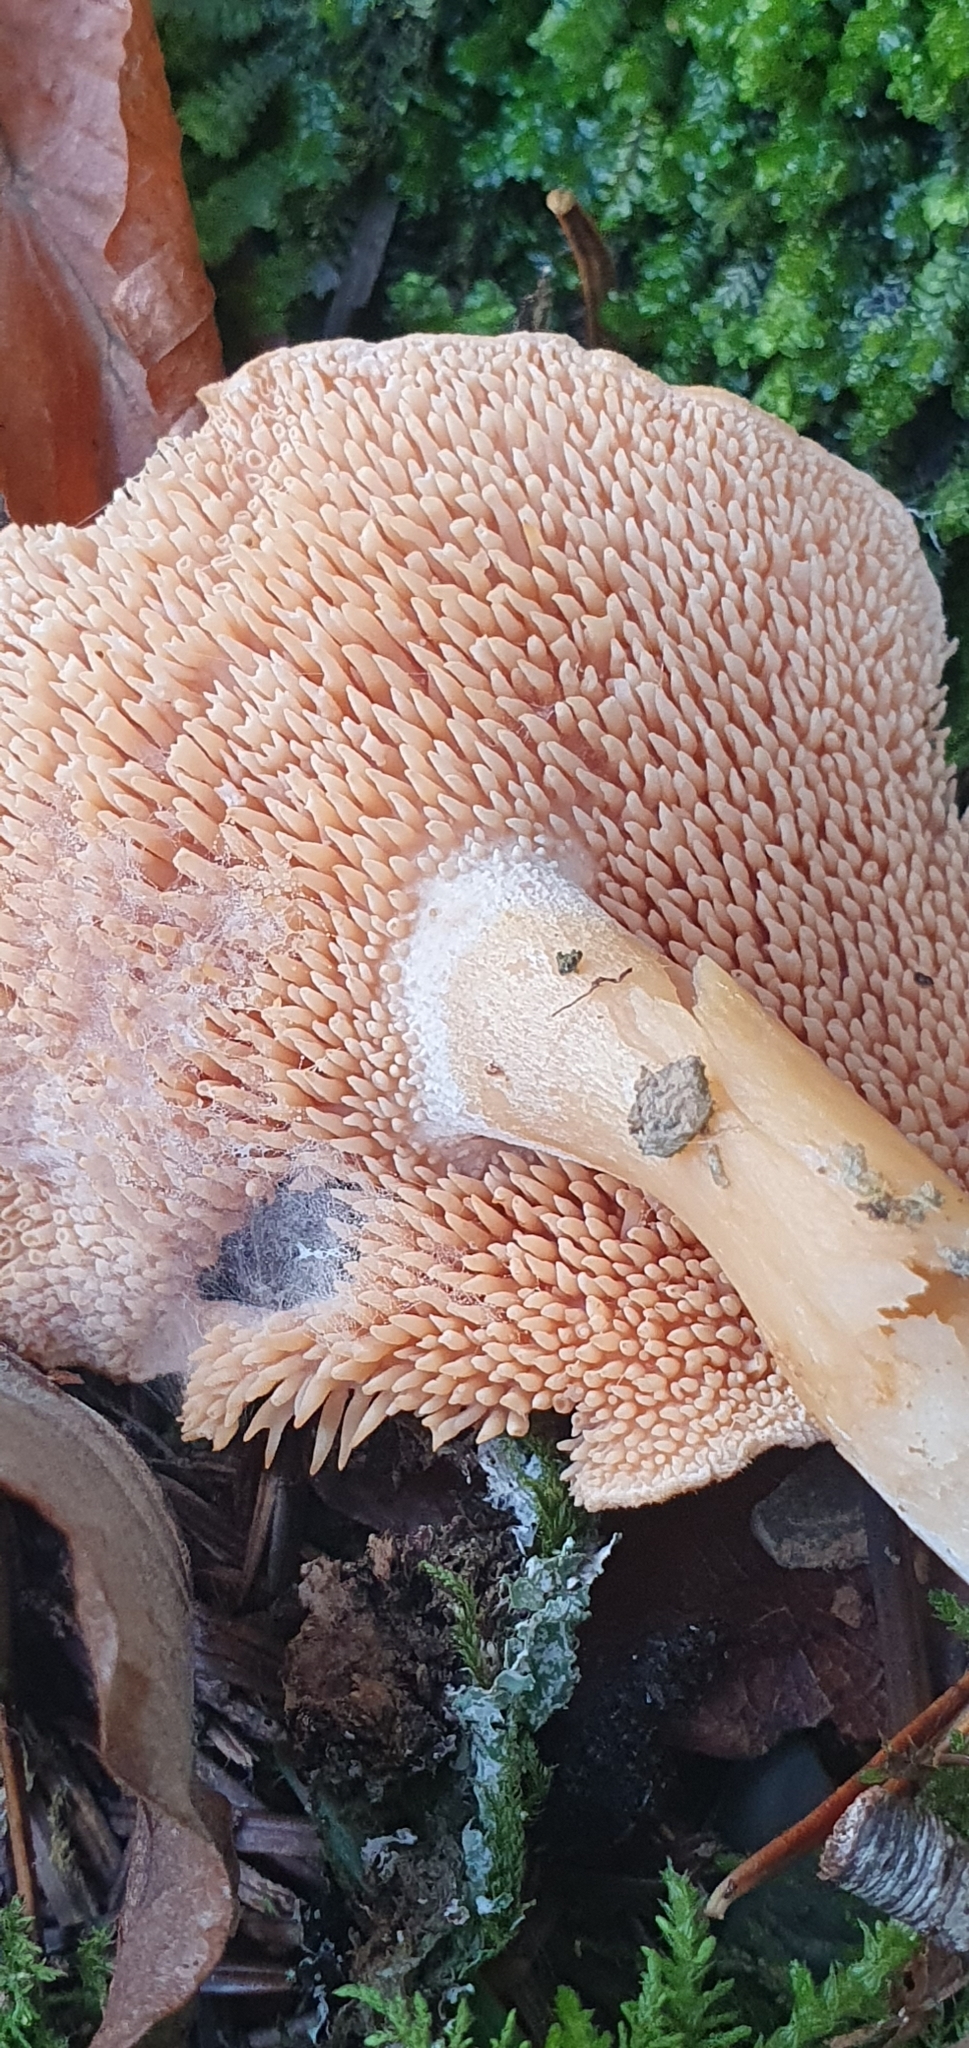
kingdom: Fungi
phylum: Basidiomycota
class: Agaricomycetes
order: Cantharellales
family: Hydnaceae
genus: Hydnum
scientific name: Hydnum rufescens
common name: Terracotta hedgehog
